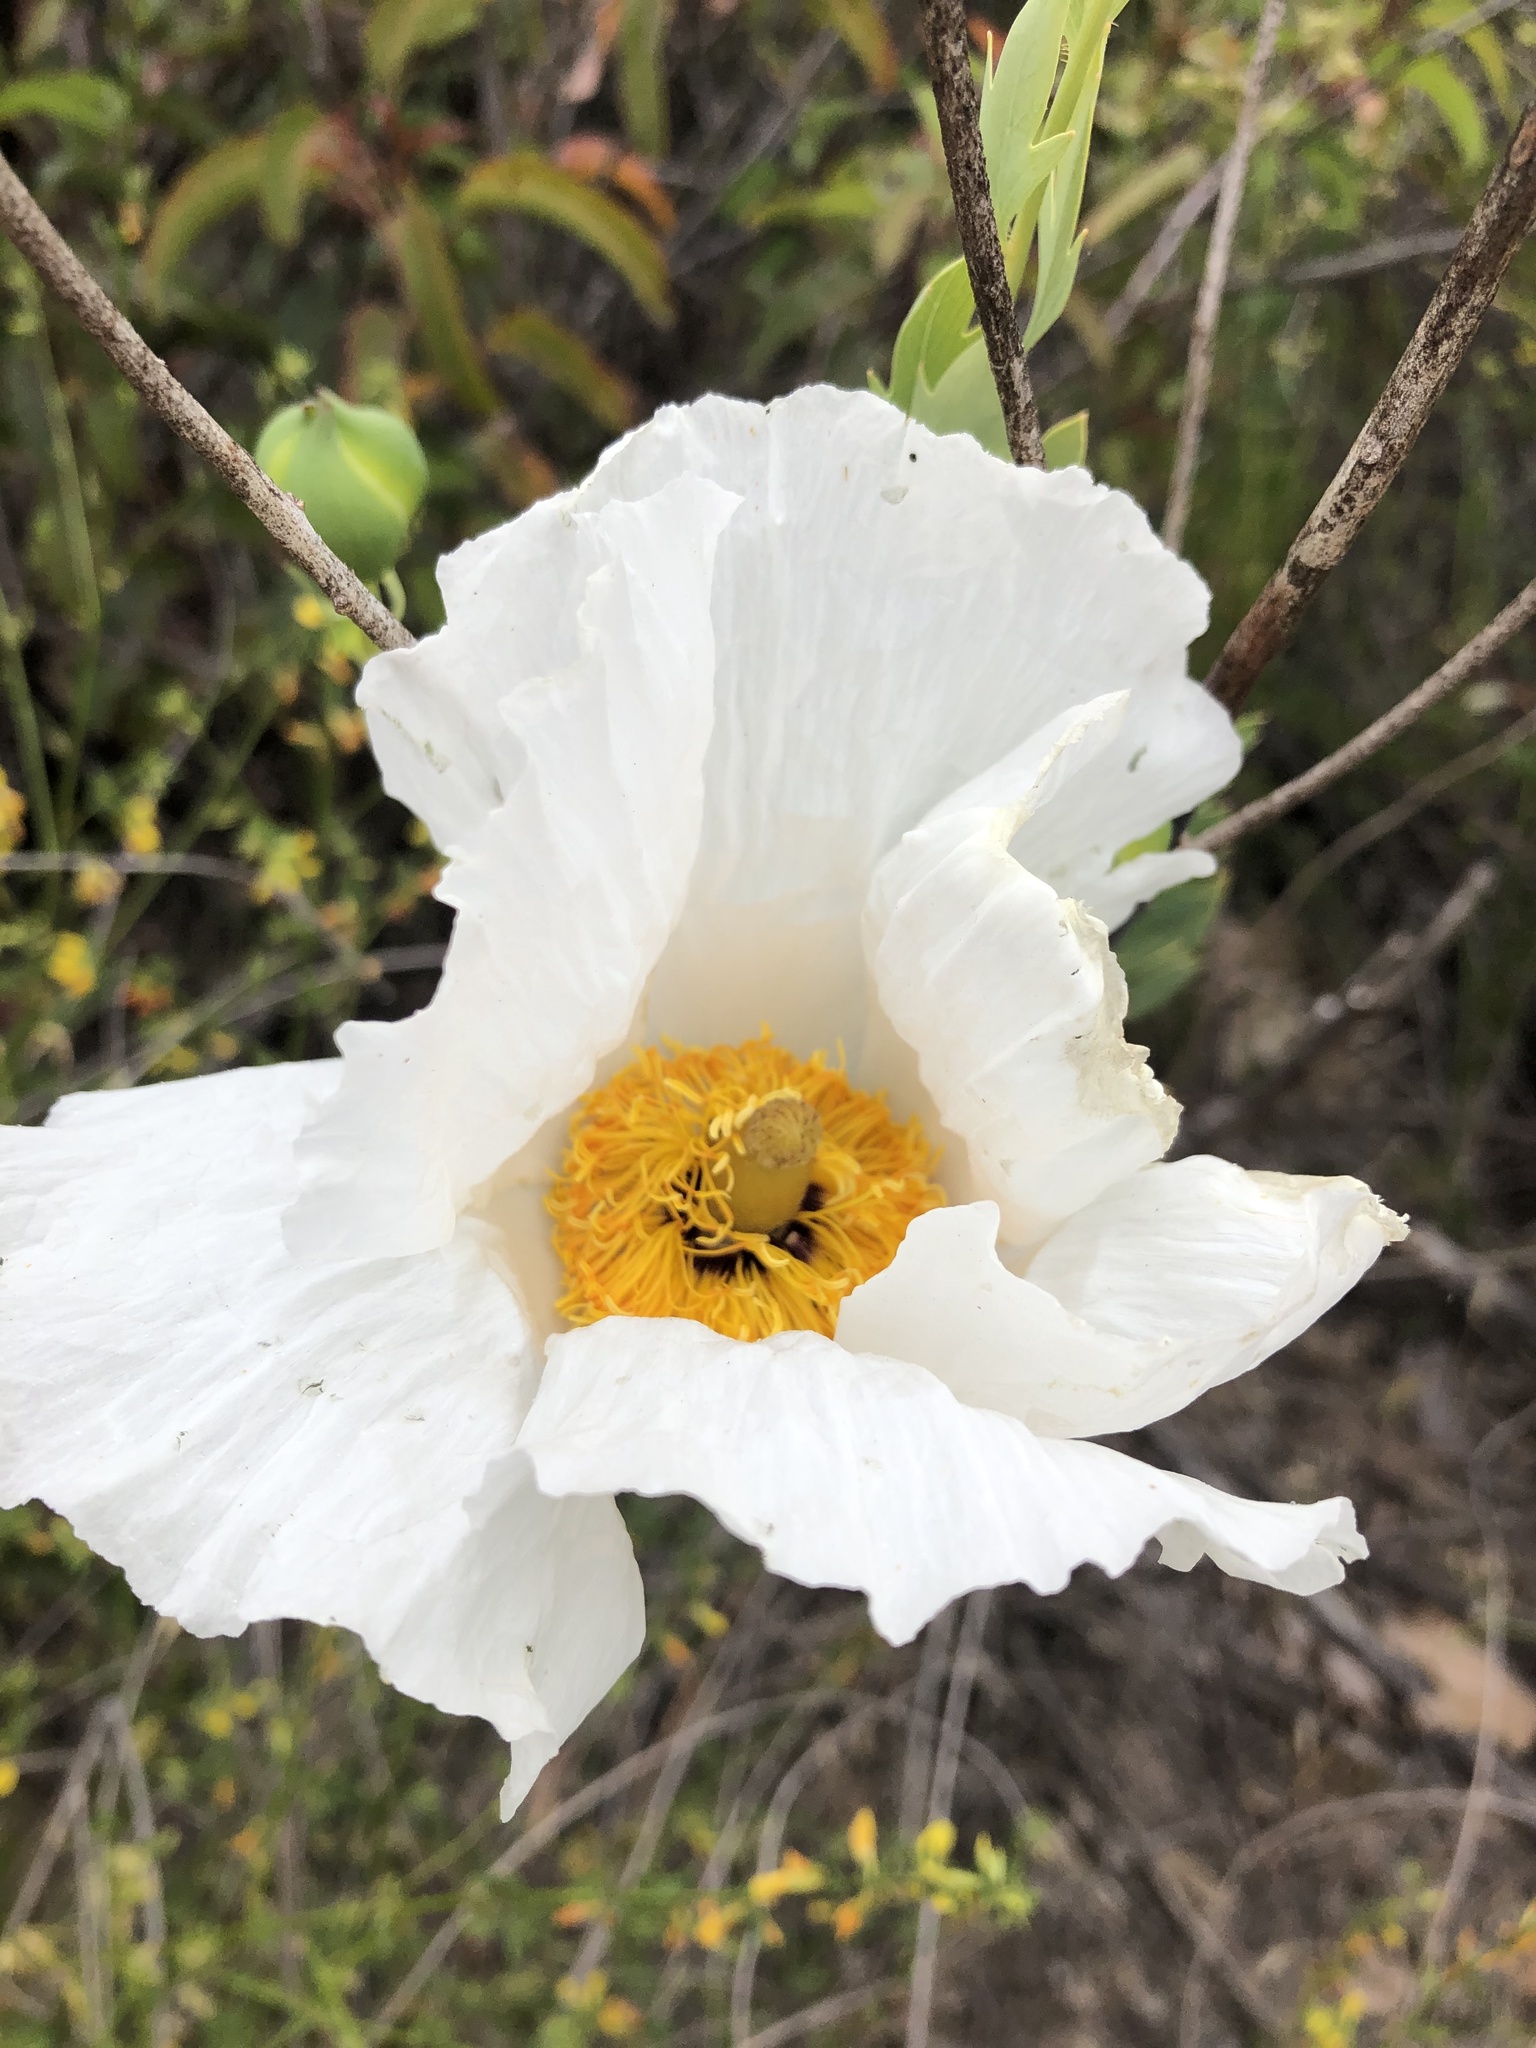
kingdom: Plantae
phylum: Tracheophyta
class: Magnoliopsida
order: Ranunculales
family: Papaveraceae
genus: Romneya
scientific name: Romneya coulteri
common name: California tree-poppy
